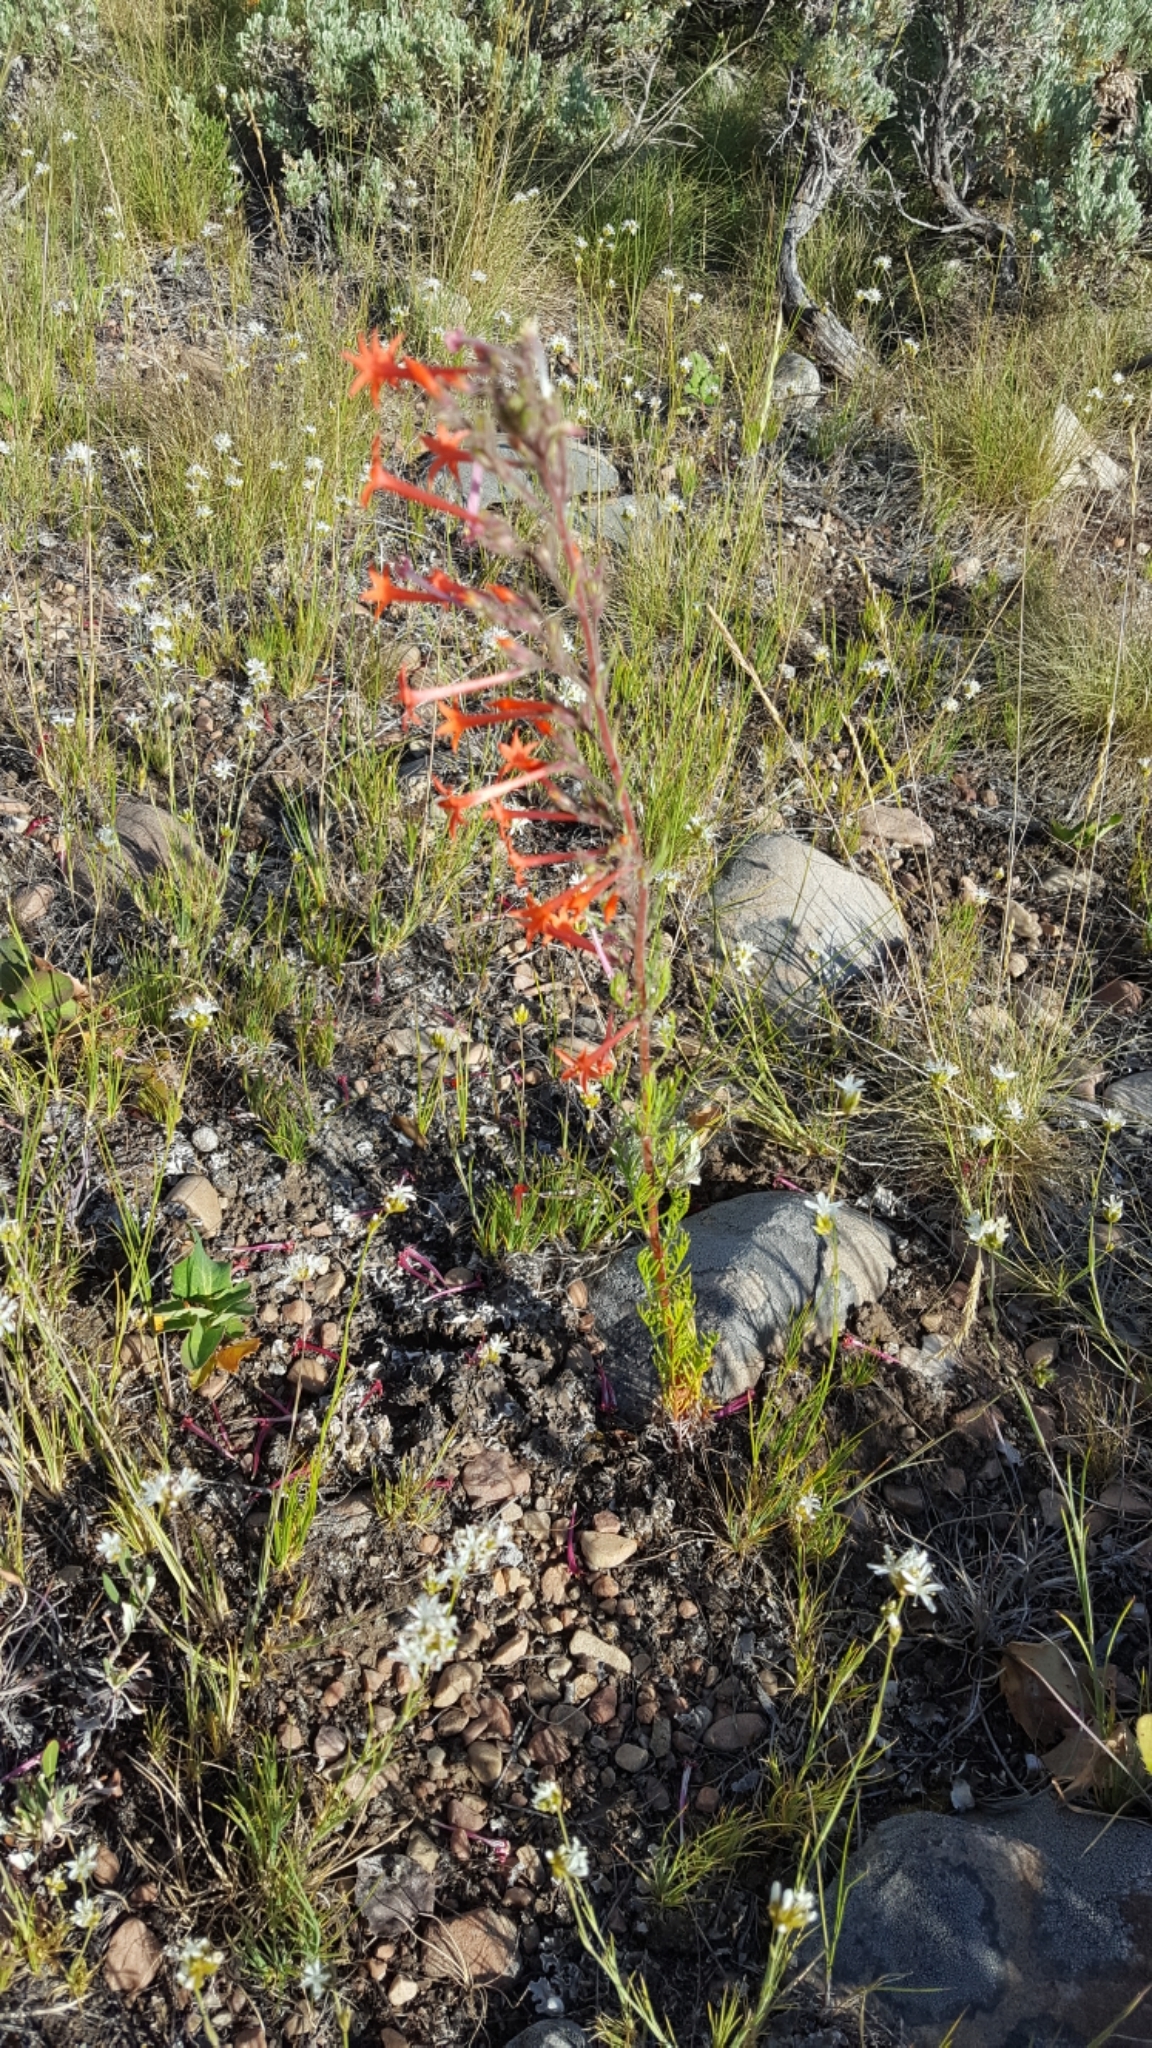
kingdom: Plantae
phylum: Tracheophyta
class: Magnoliopsida
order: Ericales
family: Polemoniaceae
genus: Ipomopsis
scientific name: Ipomopsis aggregata
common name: Scarlet gilia
